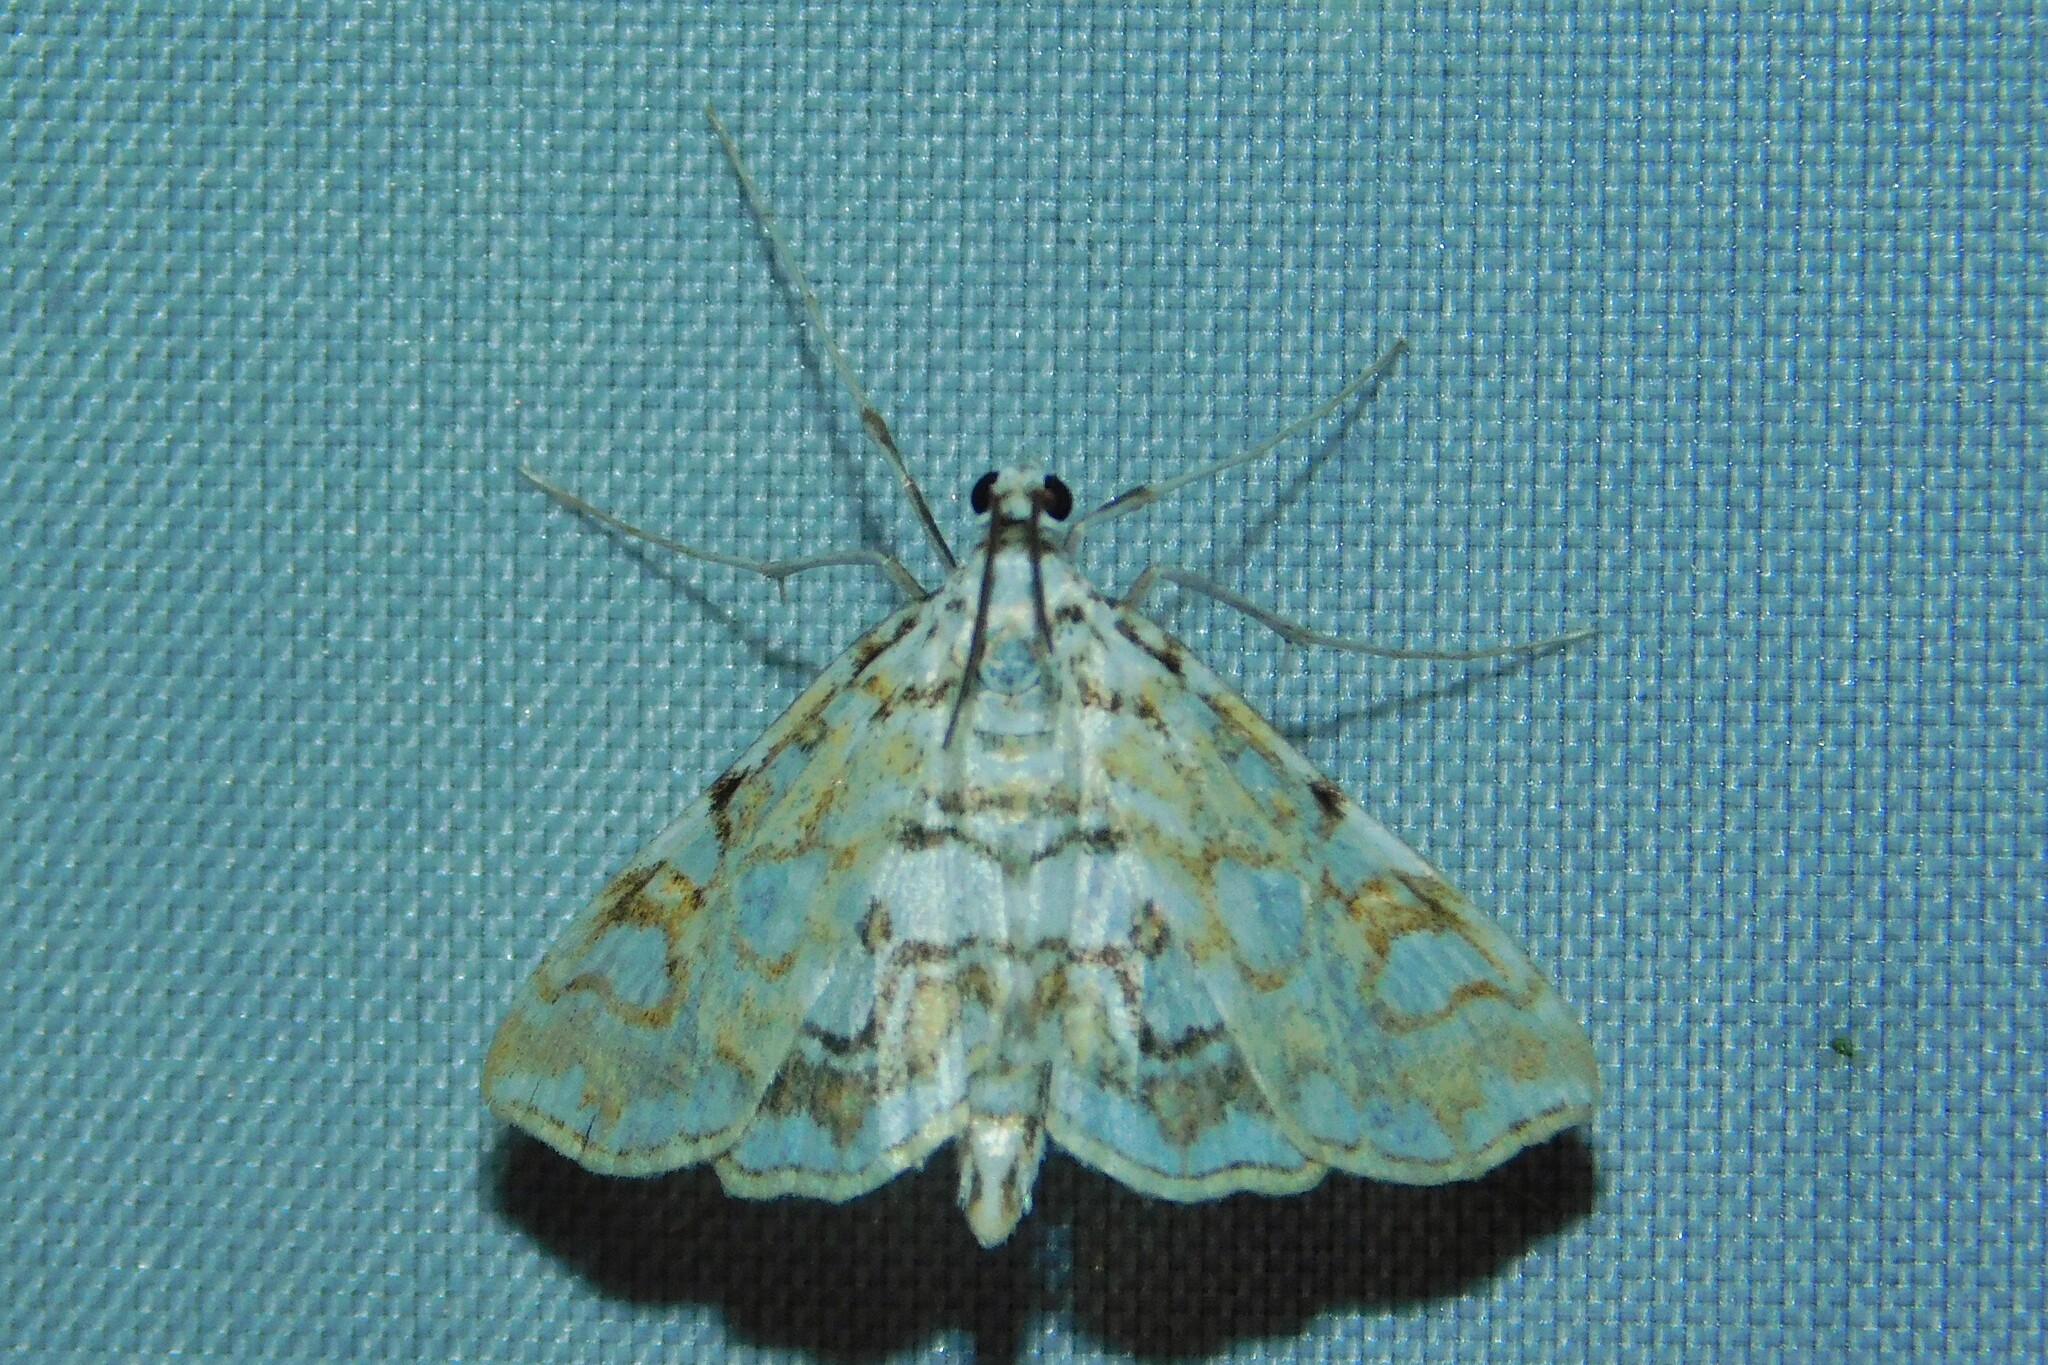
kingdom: Animalia
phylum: Arthropoda
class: Insecta
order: Lepidoptera
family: Crambidae
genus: Elophila
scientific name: Elophila nymphaeata
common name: Brown china-mark
